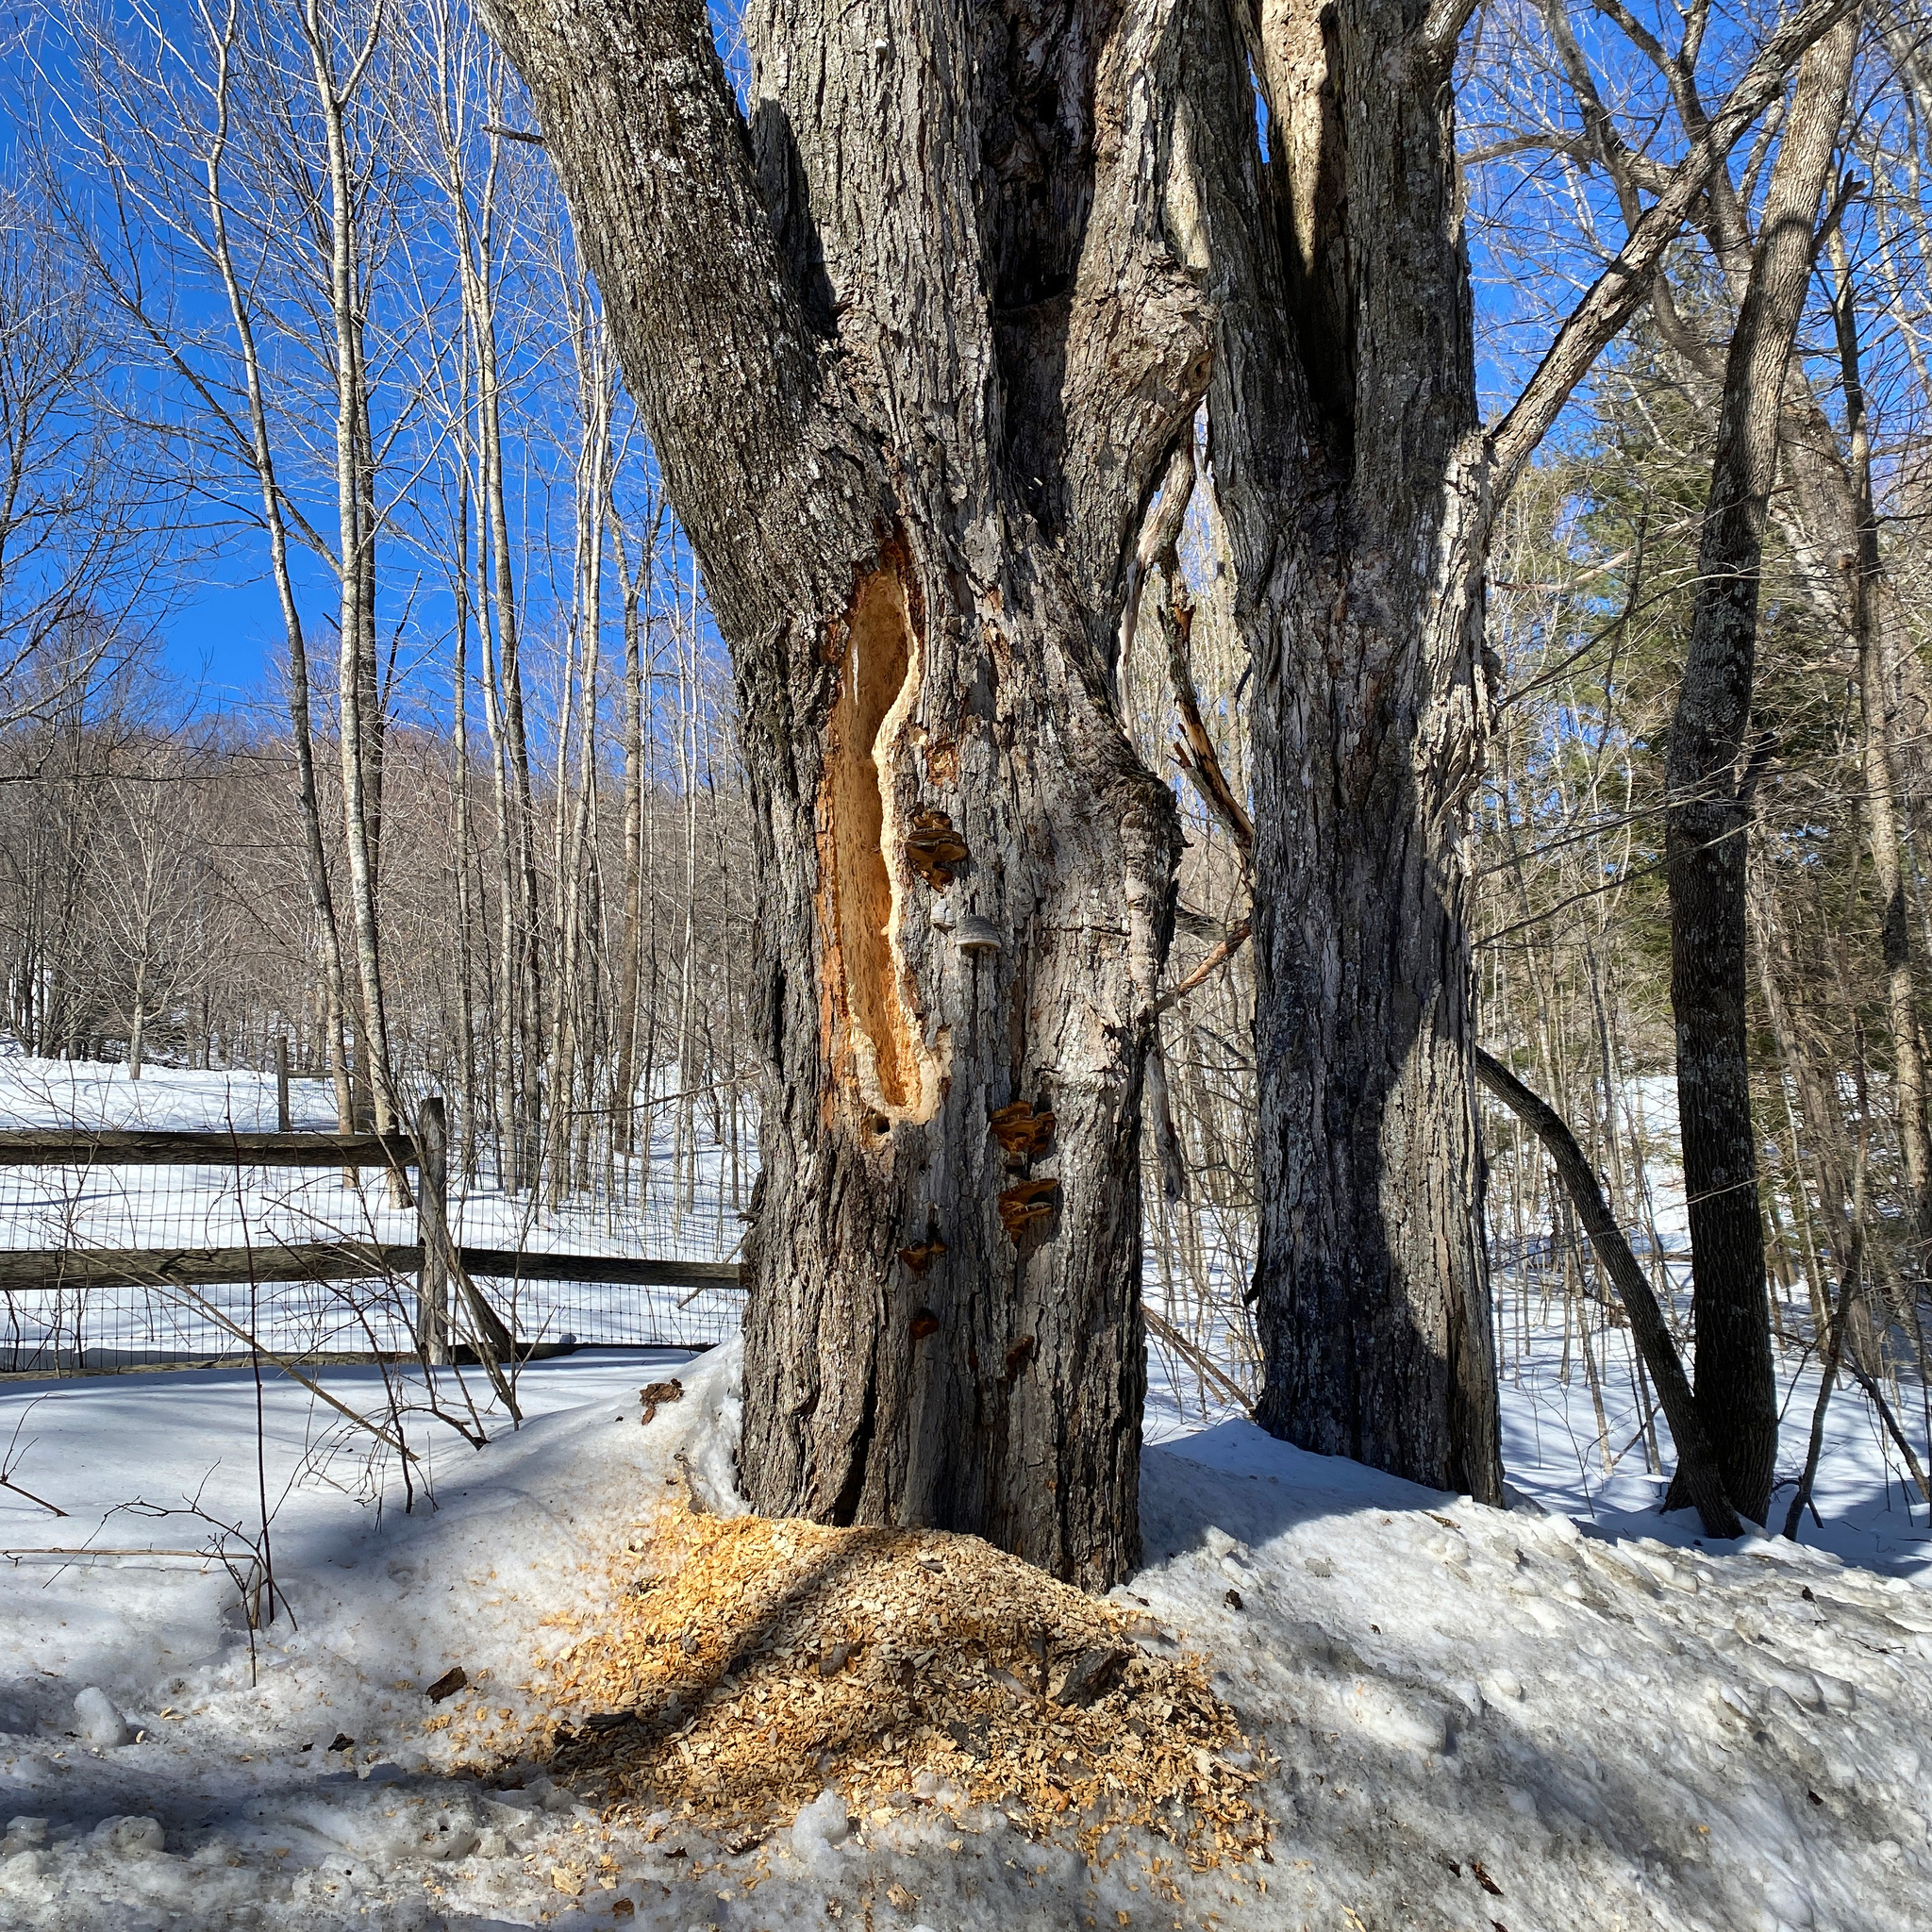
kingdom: Animalia
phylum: Chordata
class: Aves
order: Piciformes
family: Picidae
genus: Dryocopus
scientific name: Dryocopus pileatus
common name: Pileated woodpecker
